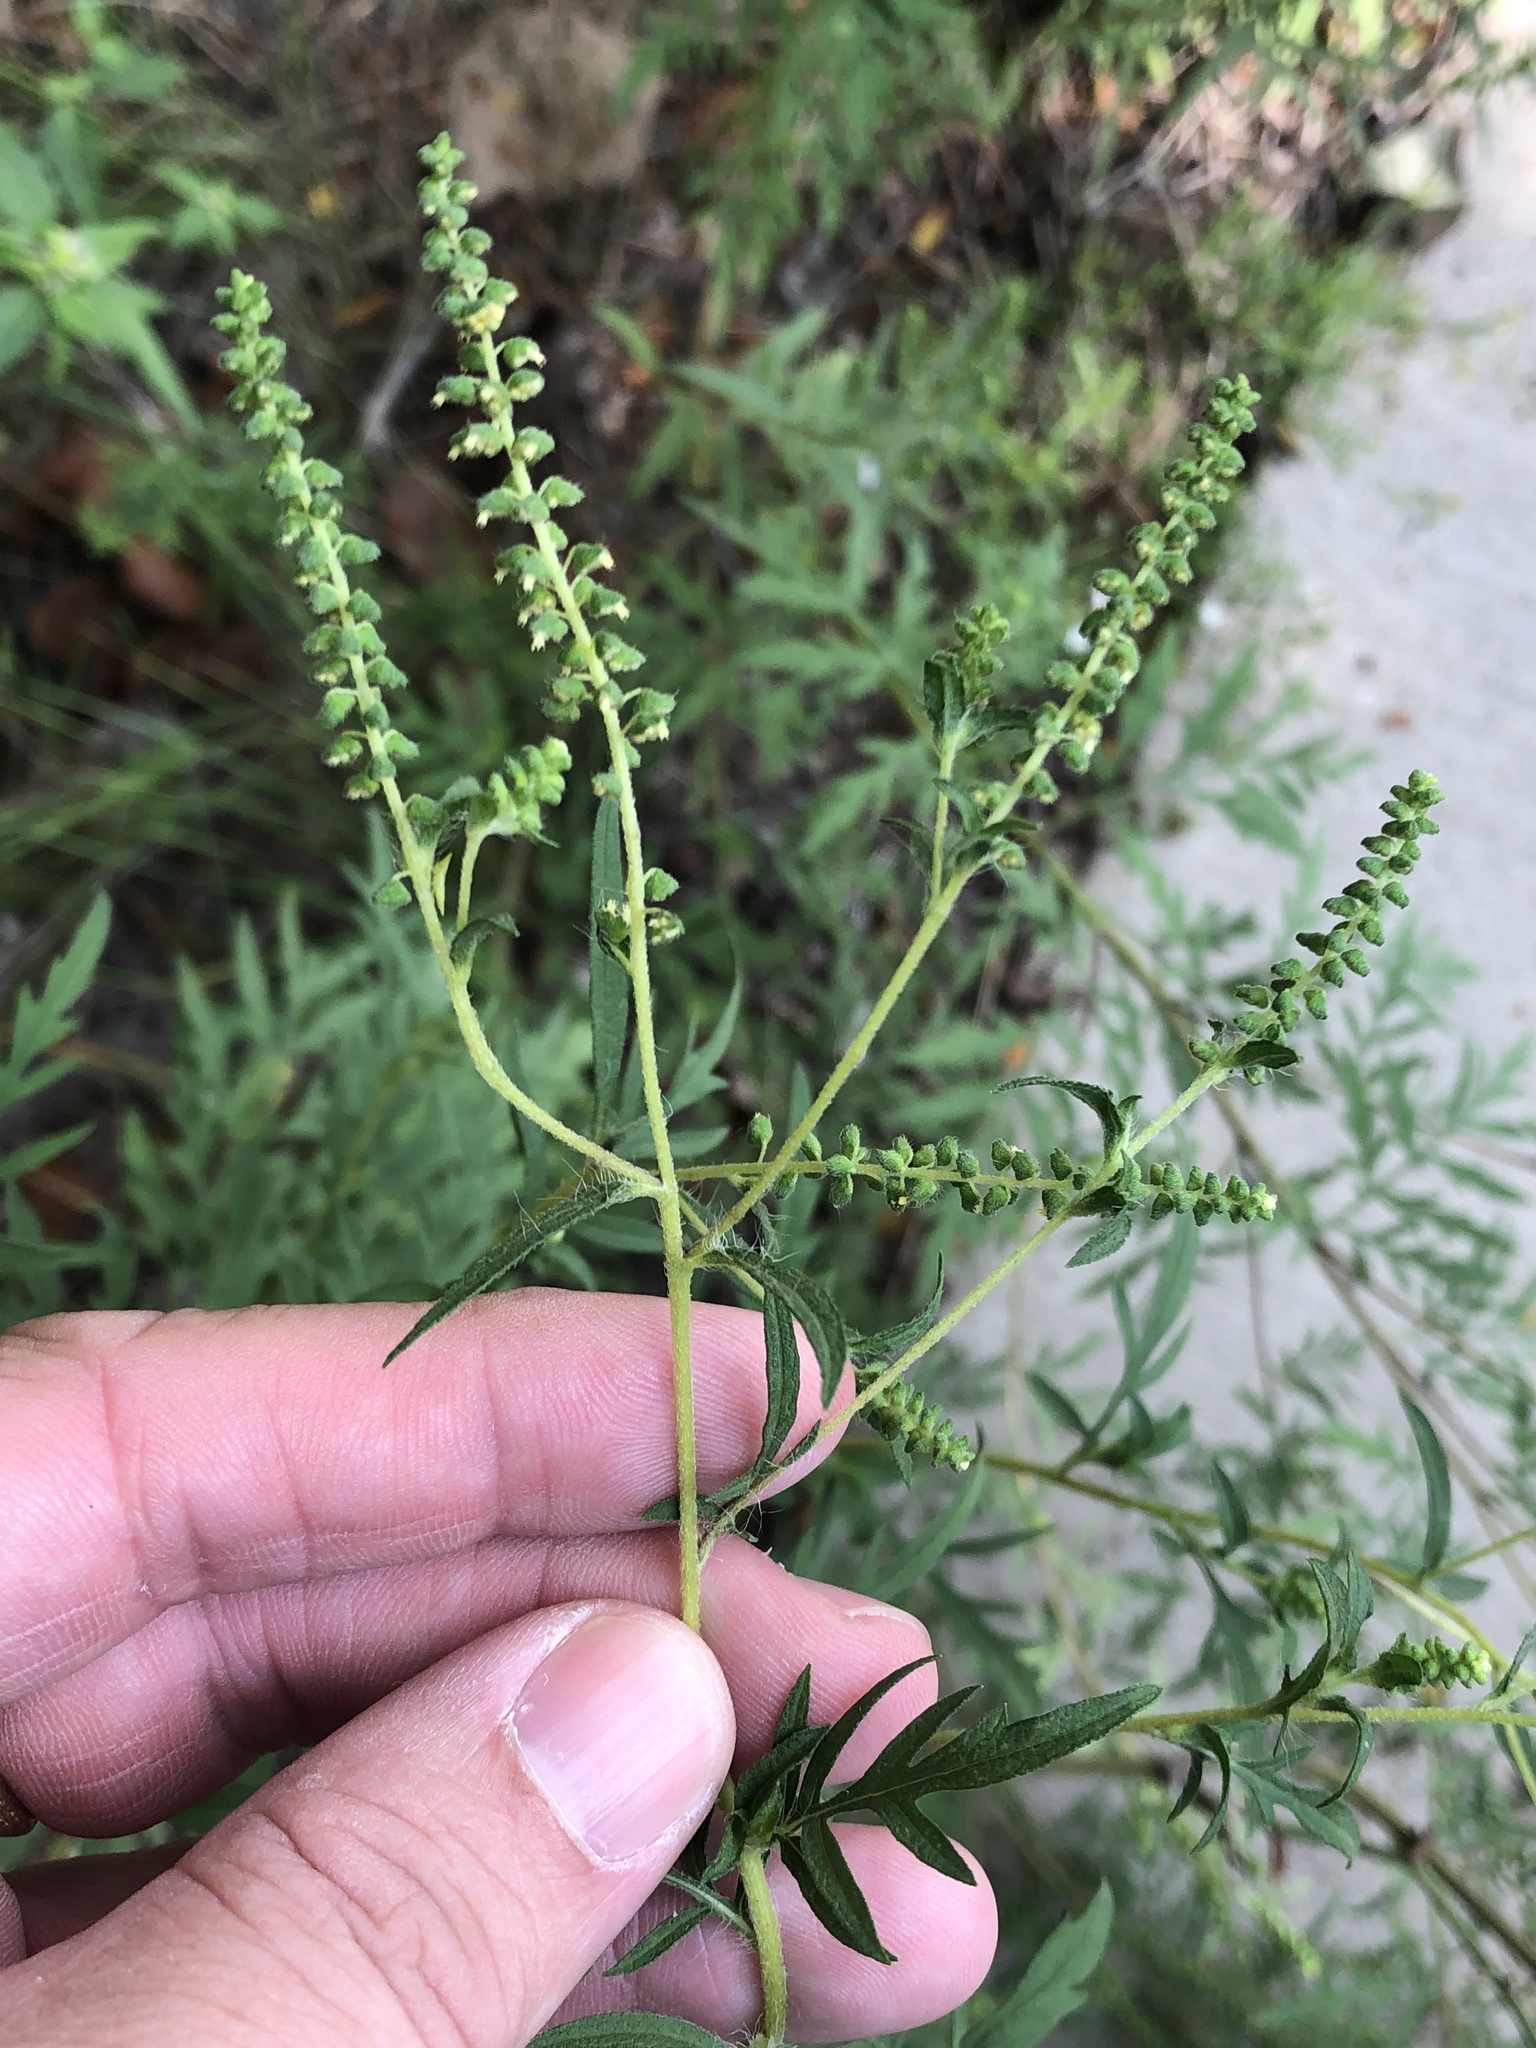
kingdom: Plantae
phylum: Tracheophyta
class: Magnoliopsida
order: Asterales
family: Asteraceae
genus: Ambrosia
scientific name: Ambrosia artemisiifolia
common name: Annual ragweed
